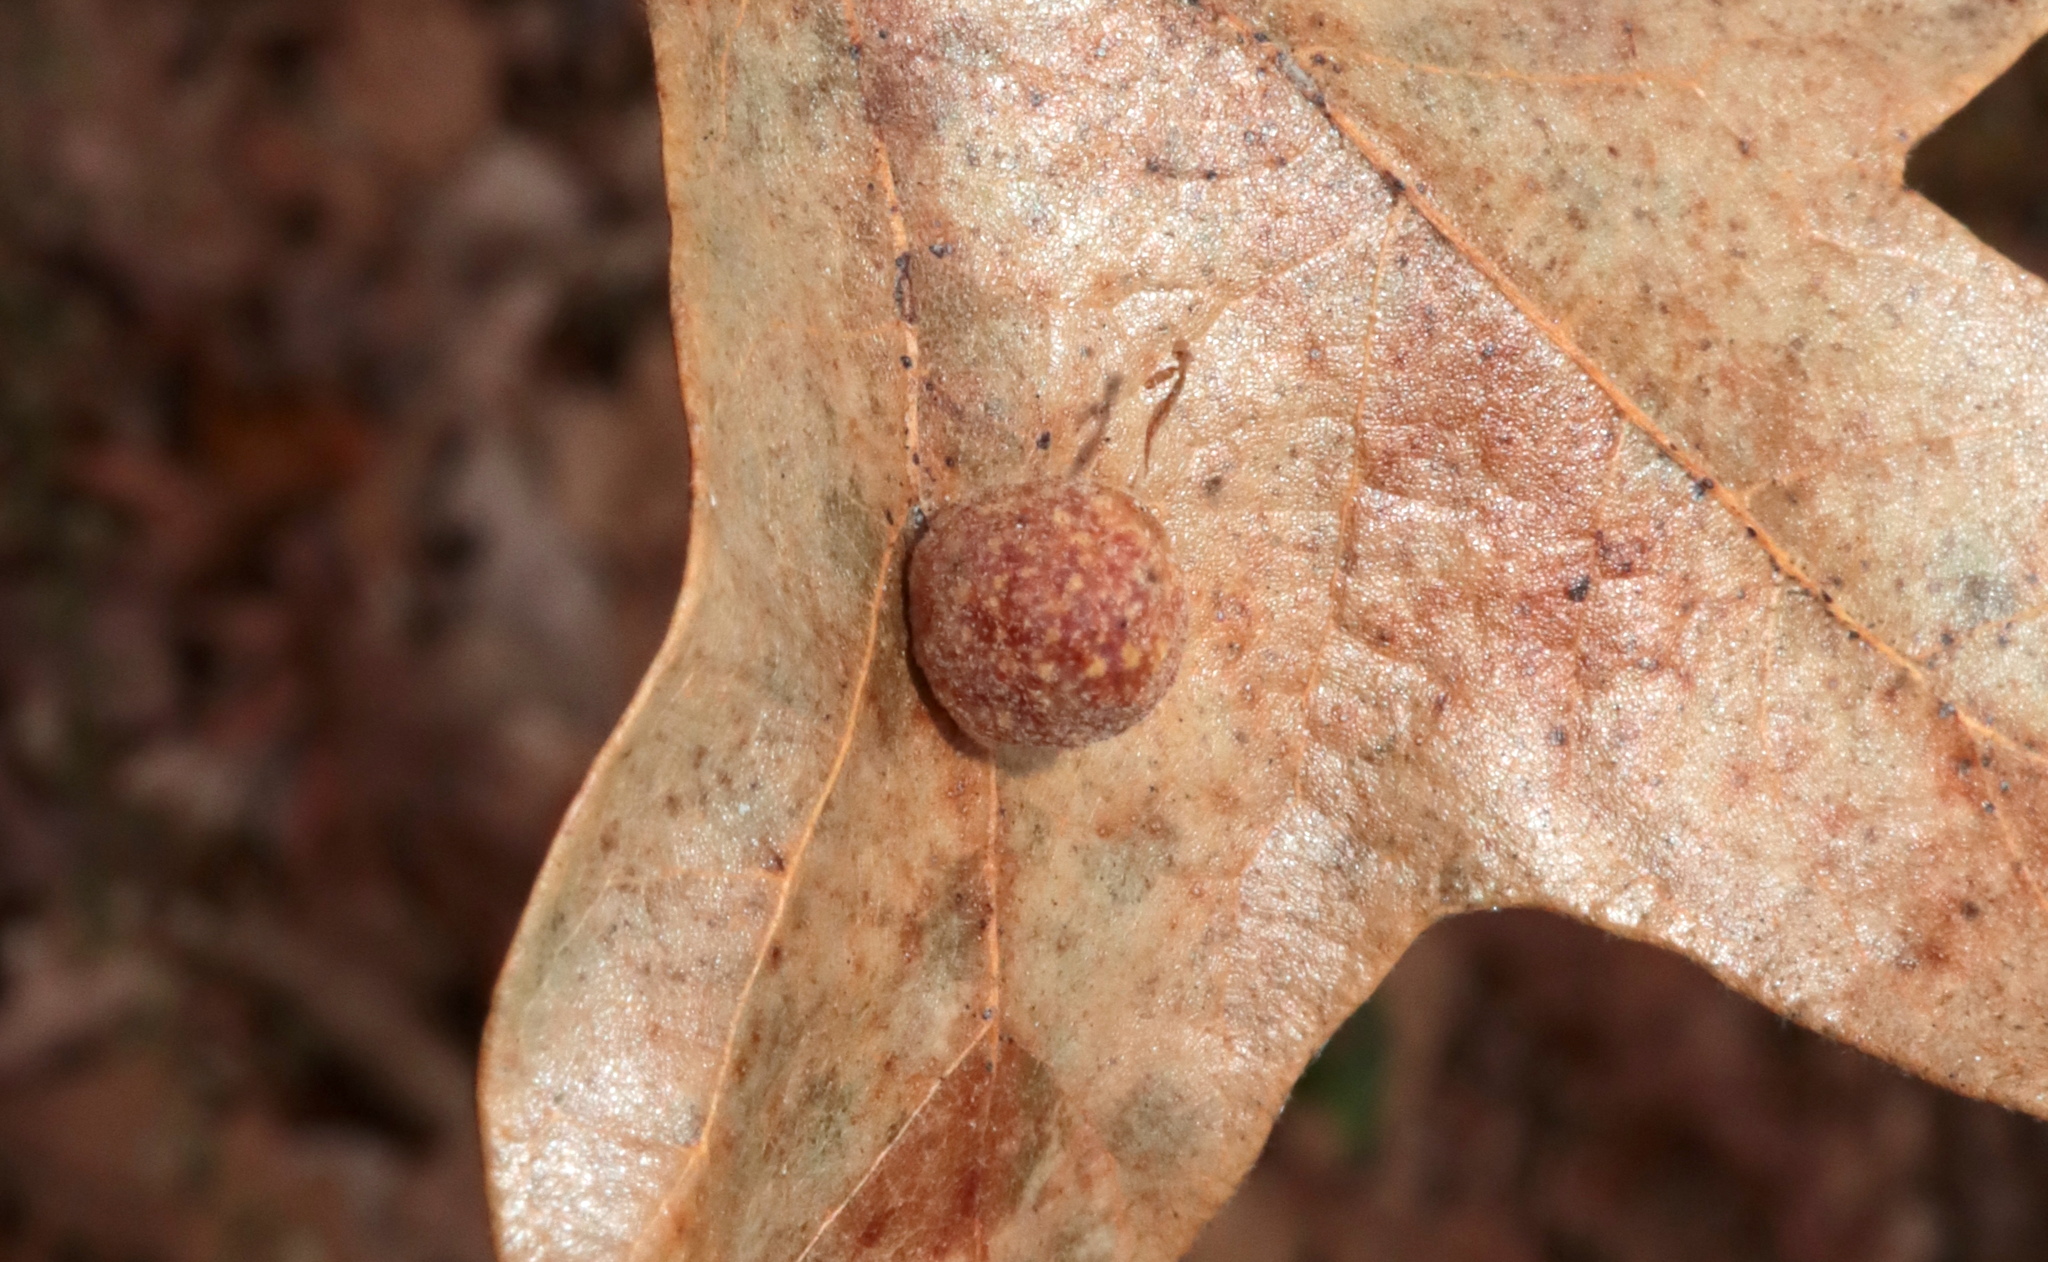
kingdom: Animalia
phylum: Arthropoda
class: Insecta
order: Hymenoptera
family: Cynipidae
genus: Atrusca
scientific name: Atrusca
